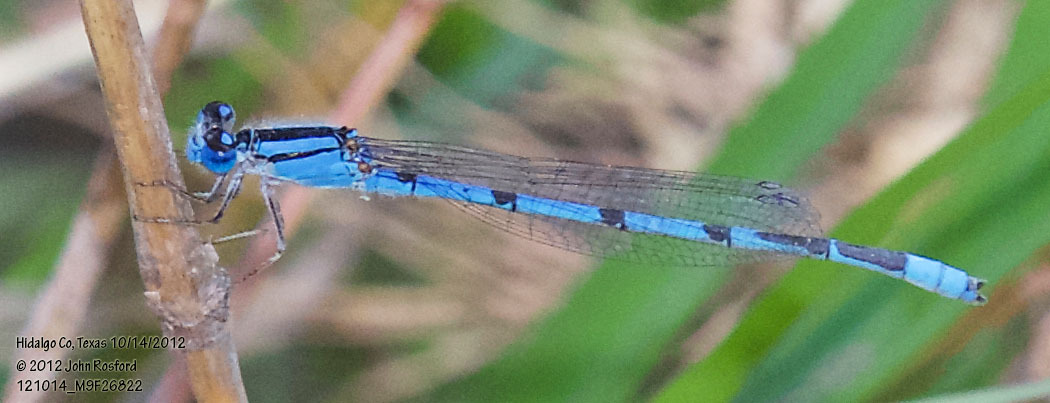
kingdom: Animalia
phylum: Arthropoda
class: Insecta
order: Odonata
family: Coenagrionidae
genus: Enallagma
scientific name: Enallagma civile
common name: Damselfly
